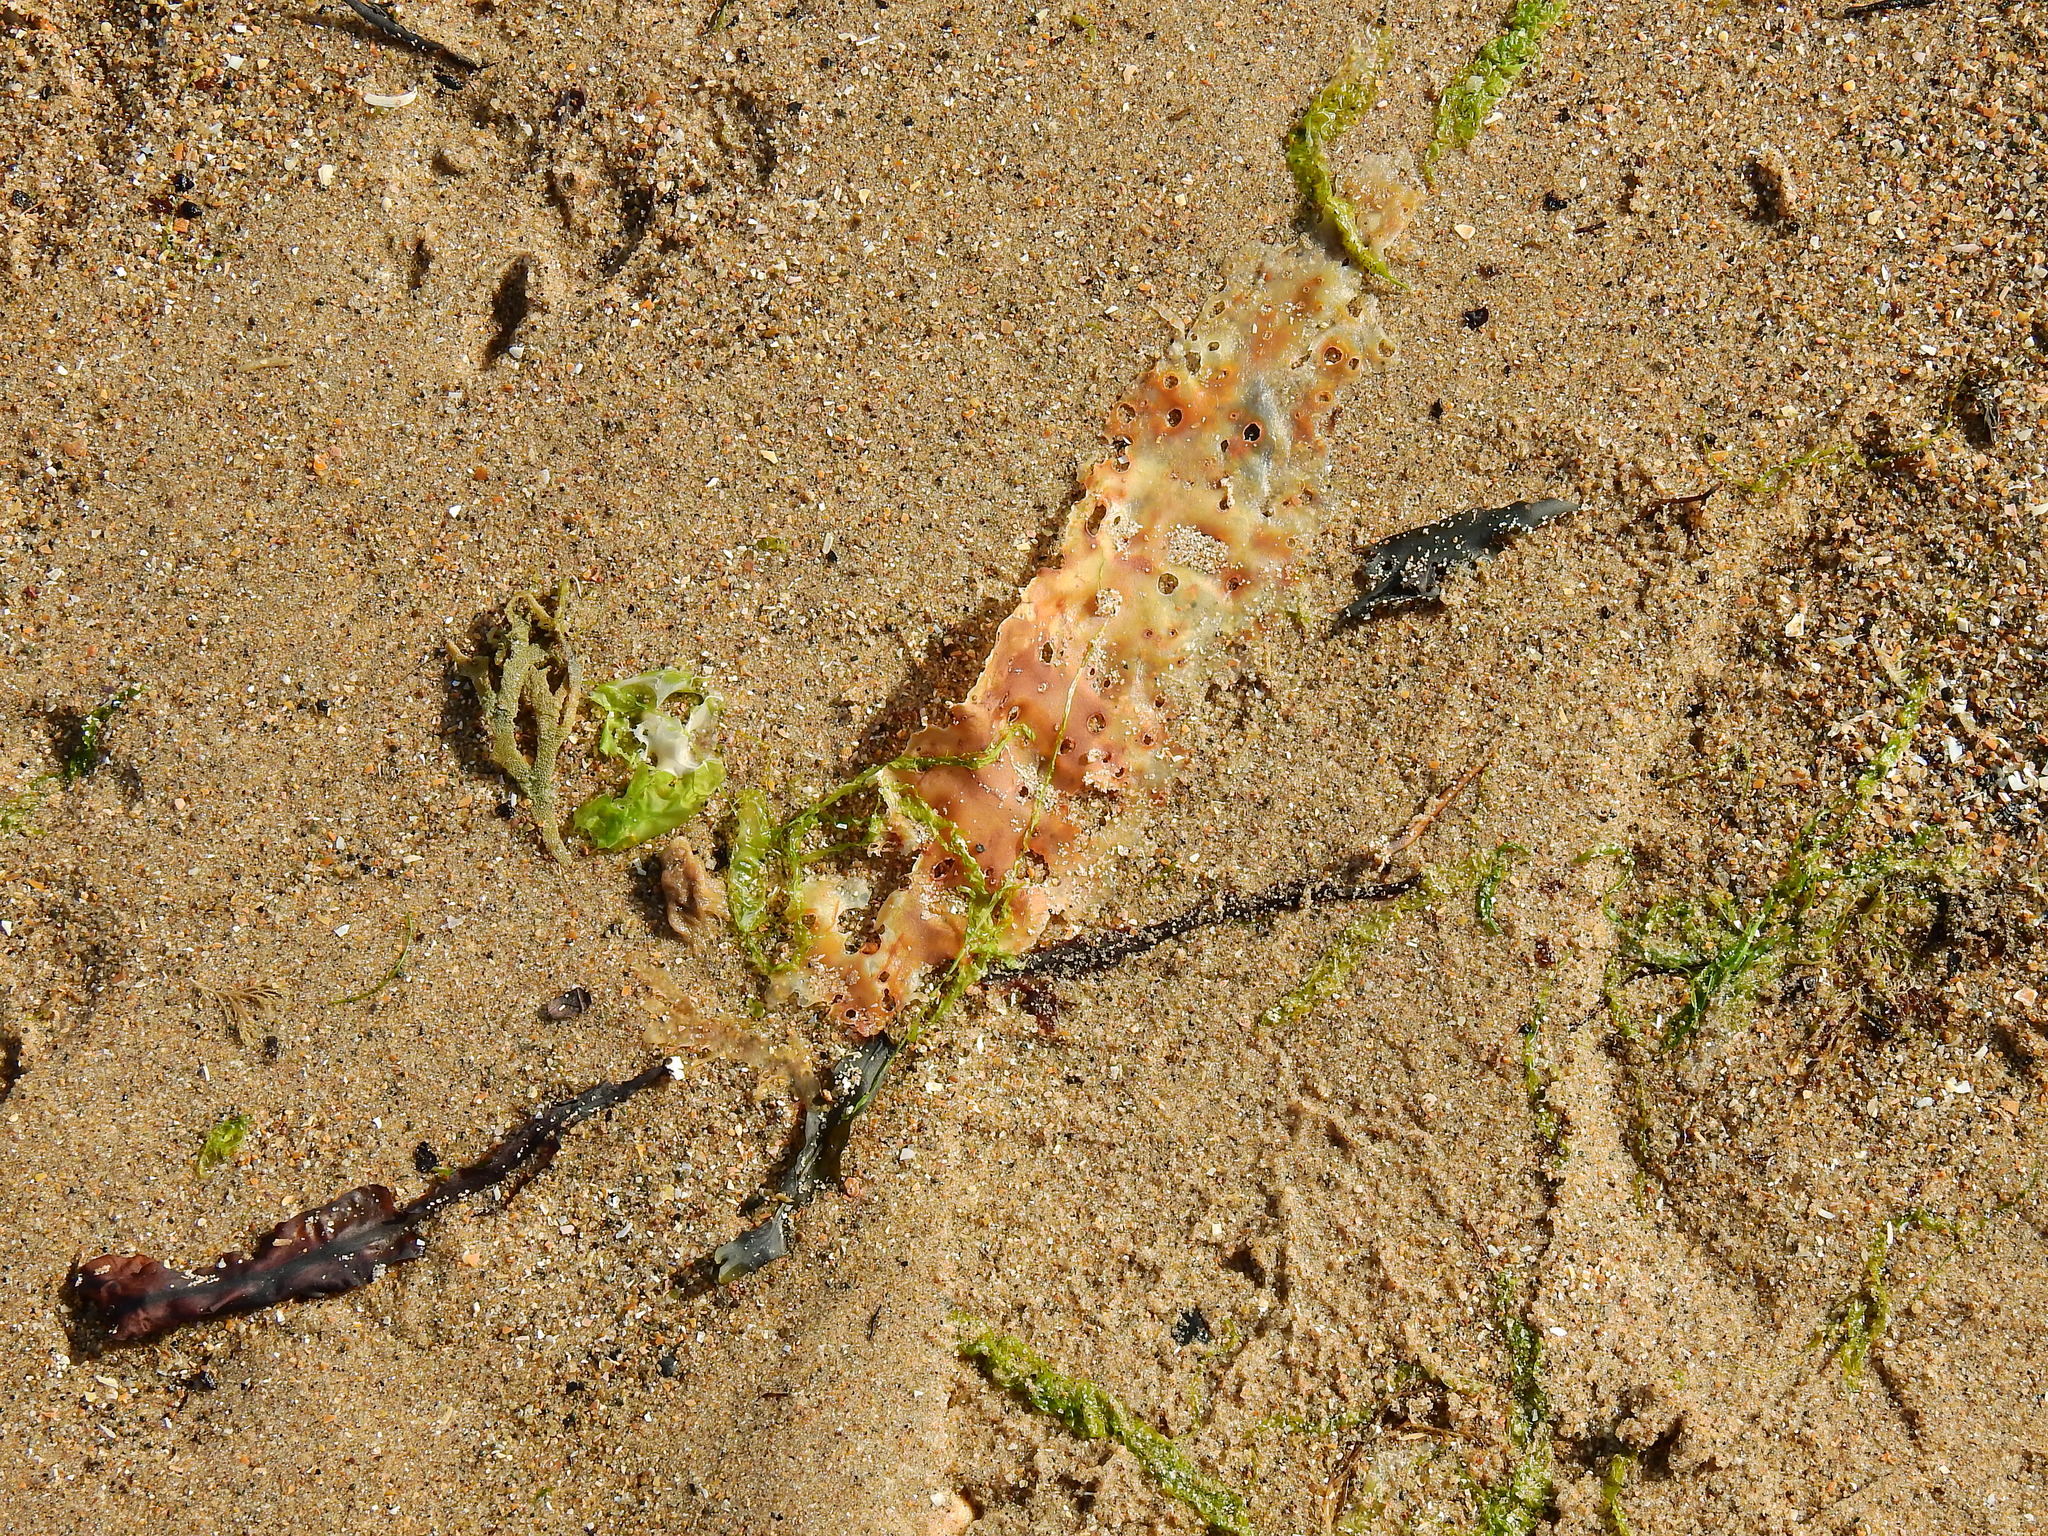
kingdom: Chromista
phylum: Ochrophyta
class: Phaeophyceae
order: Laminariales
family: Laminariaceae
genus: Saccharina
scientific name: Saccharina latissima
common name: Poor man's weather glass
